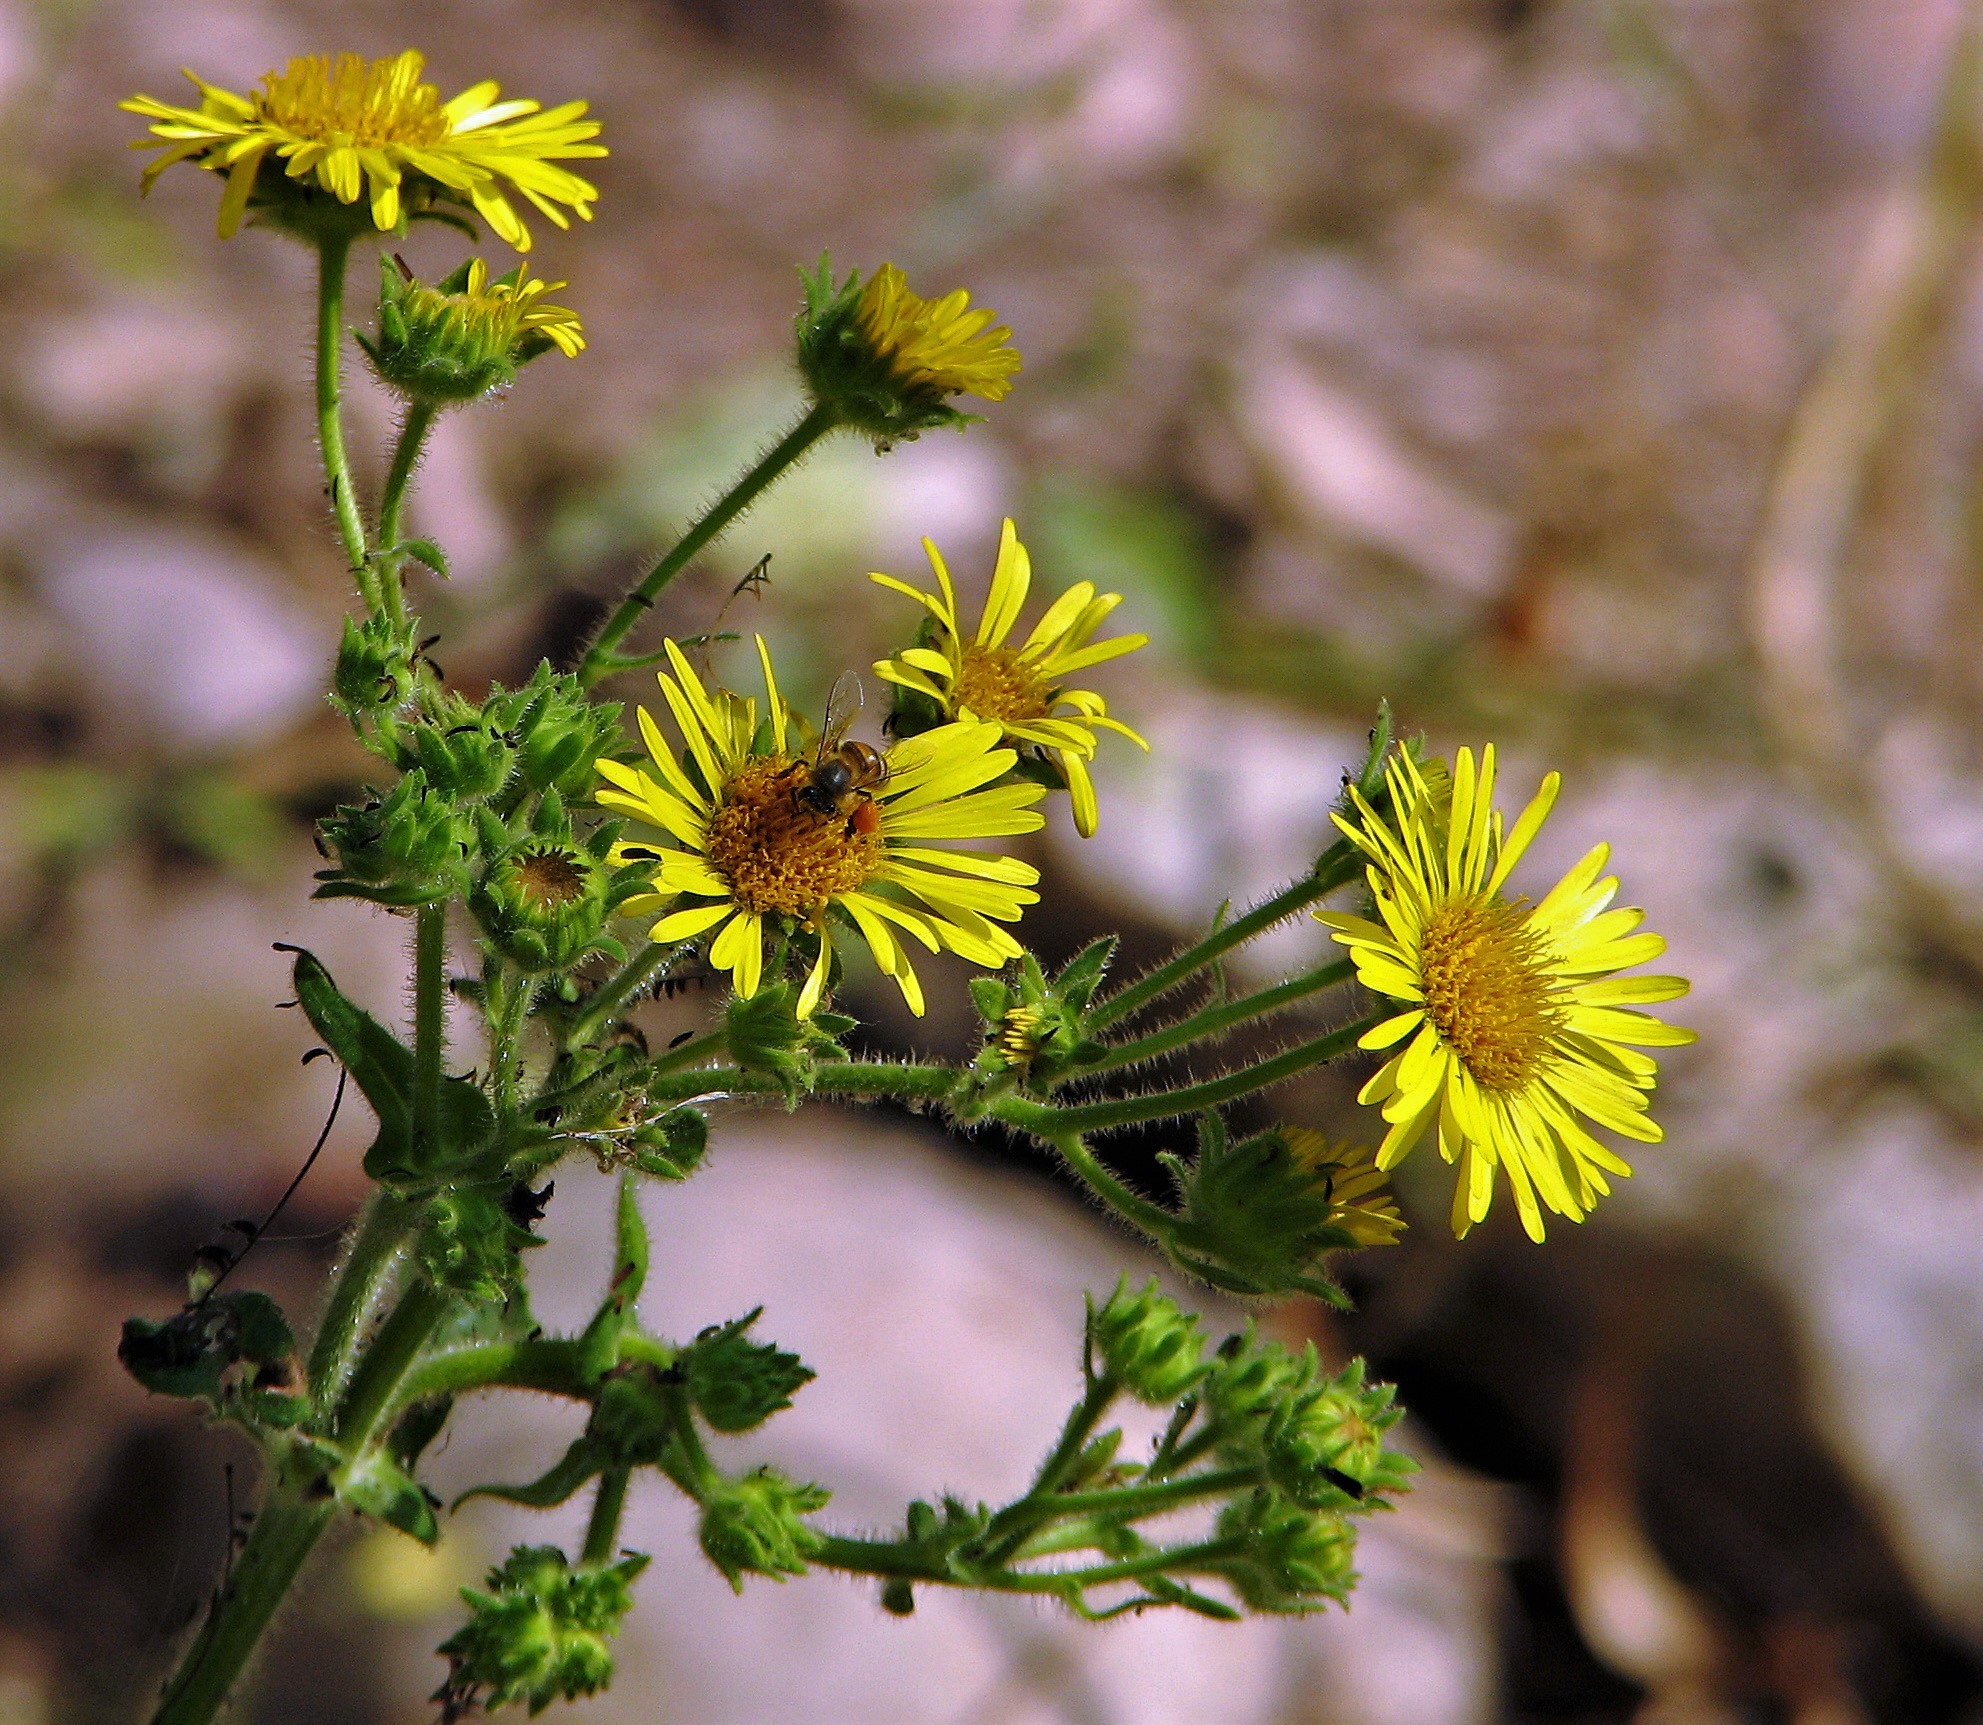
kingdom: Plantae
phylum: Tracheophyta
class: Magnoliopsida
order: Asterales
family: Asteraceae
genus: Microliabum
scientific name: Microliabum polymnioides
